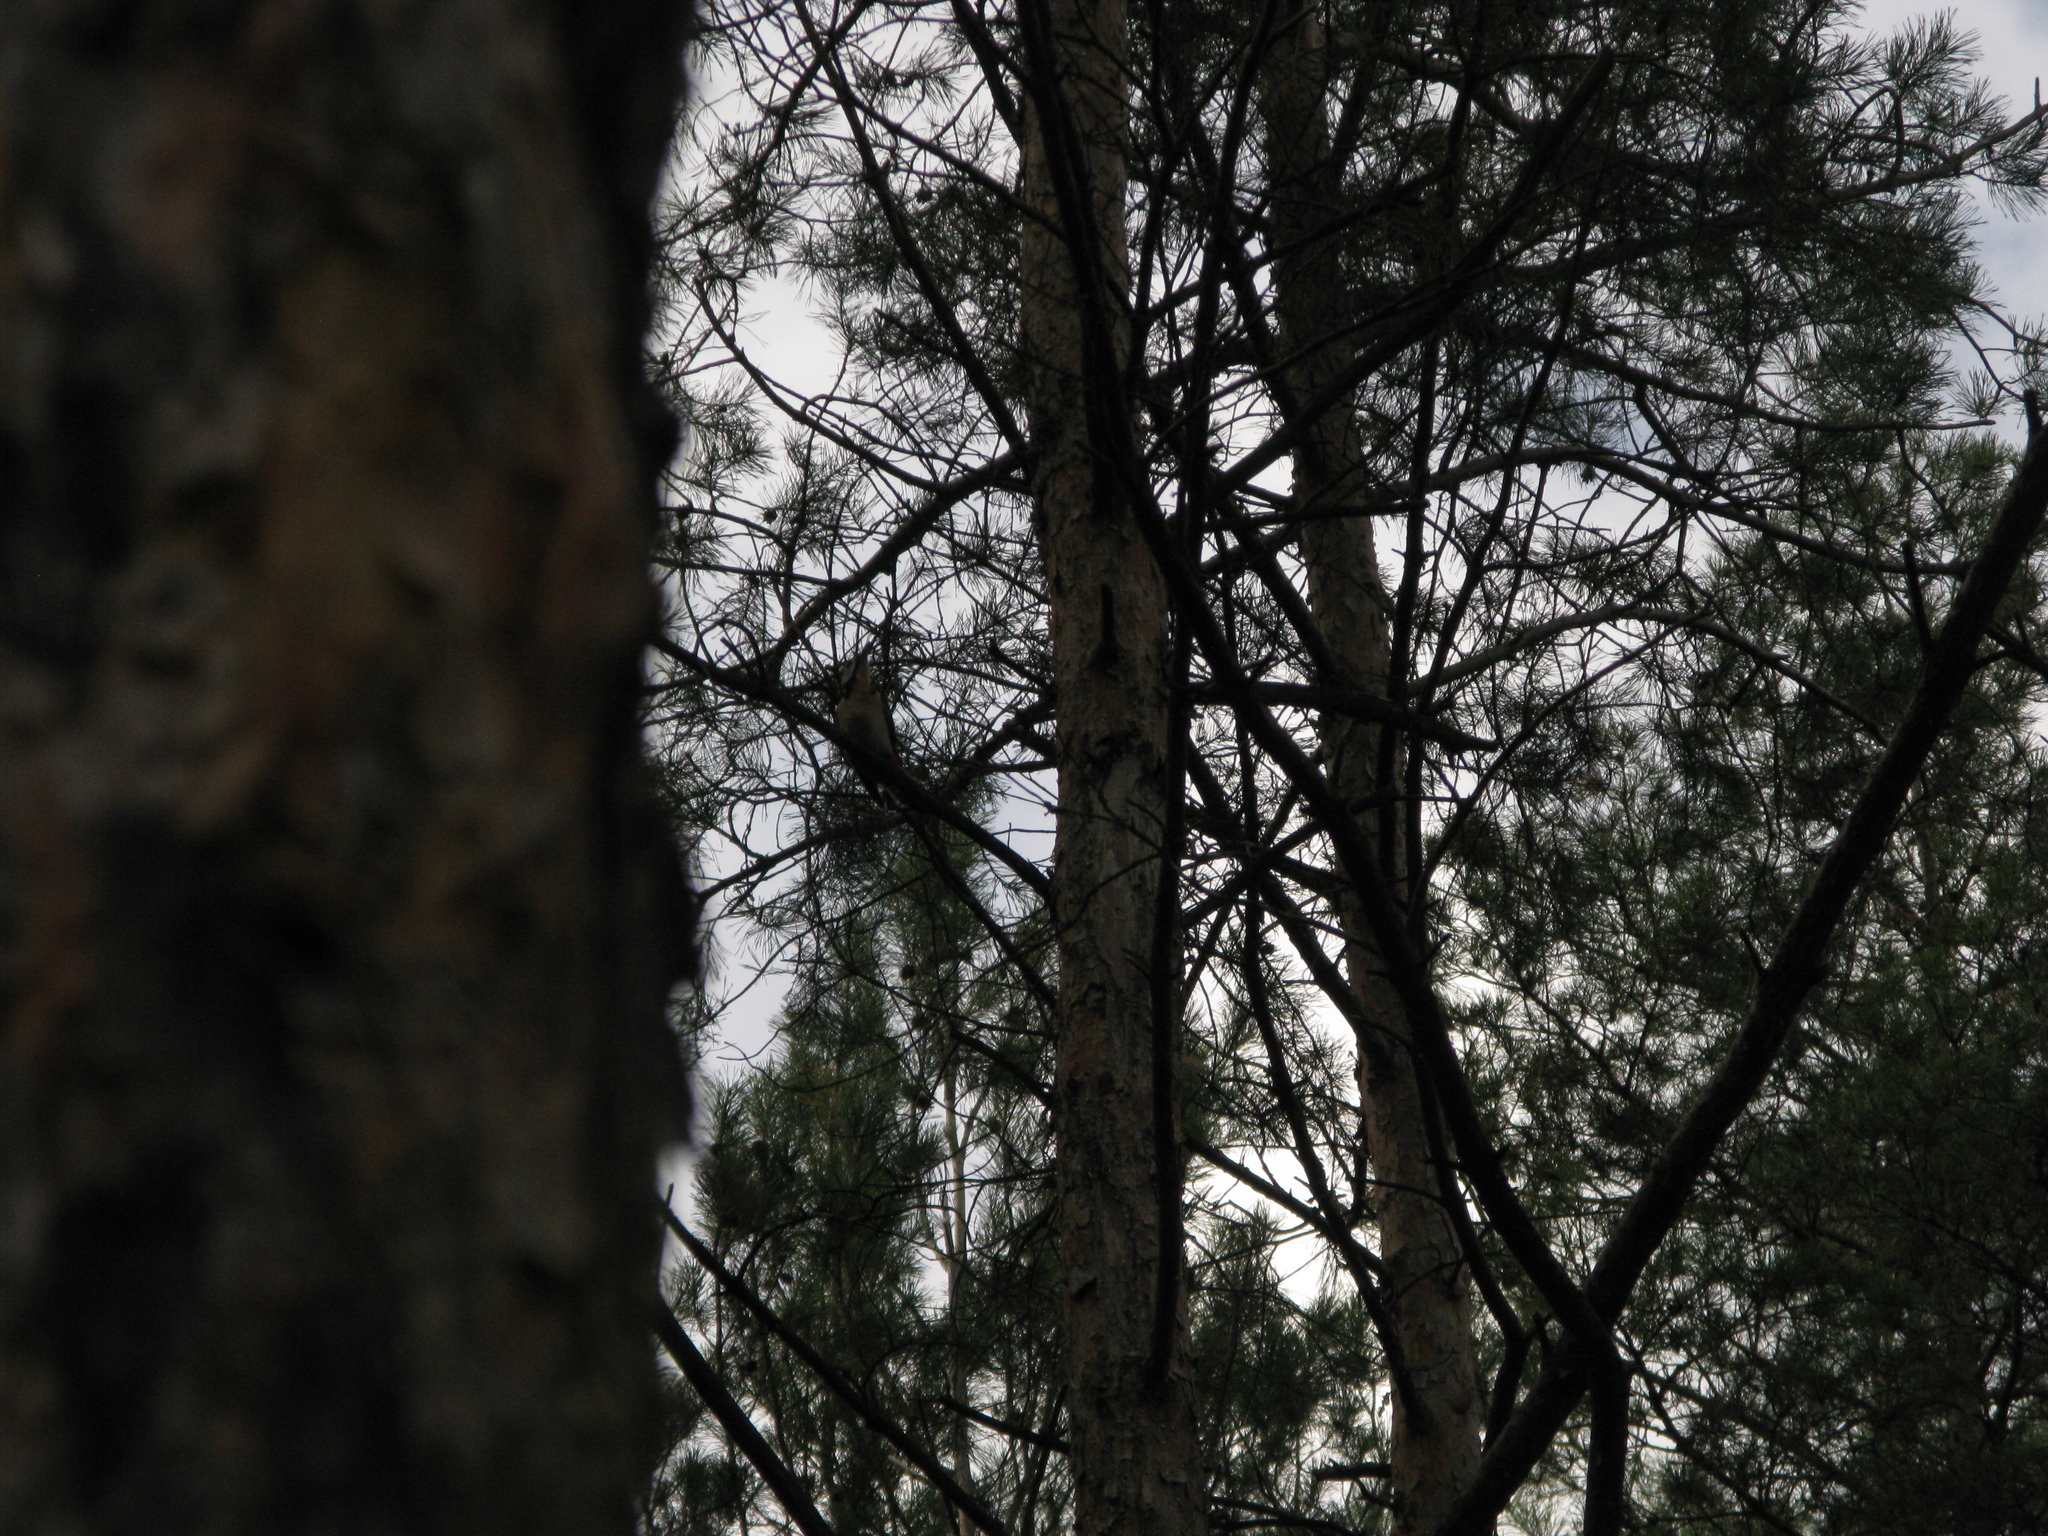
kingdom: Animalia
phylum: Chordata
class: Aves
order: Piciformes
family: Picidae
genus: Dendrocopos
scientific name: Dendrocopos major
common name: Great spotted woodpecker
